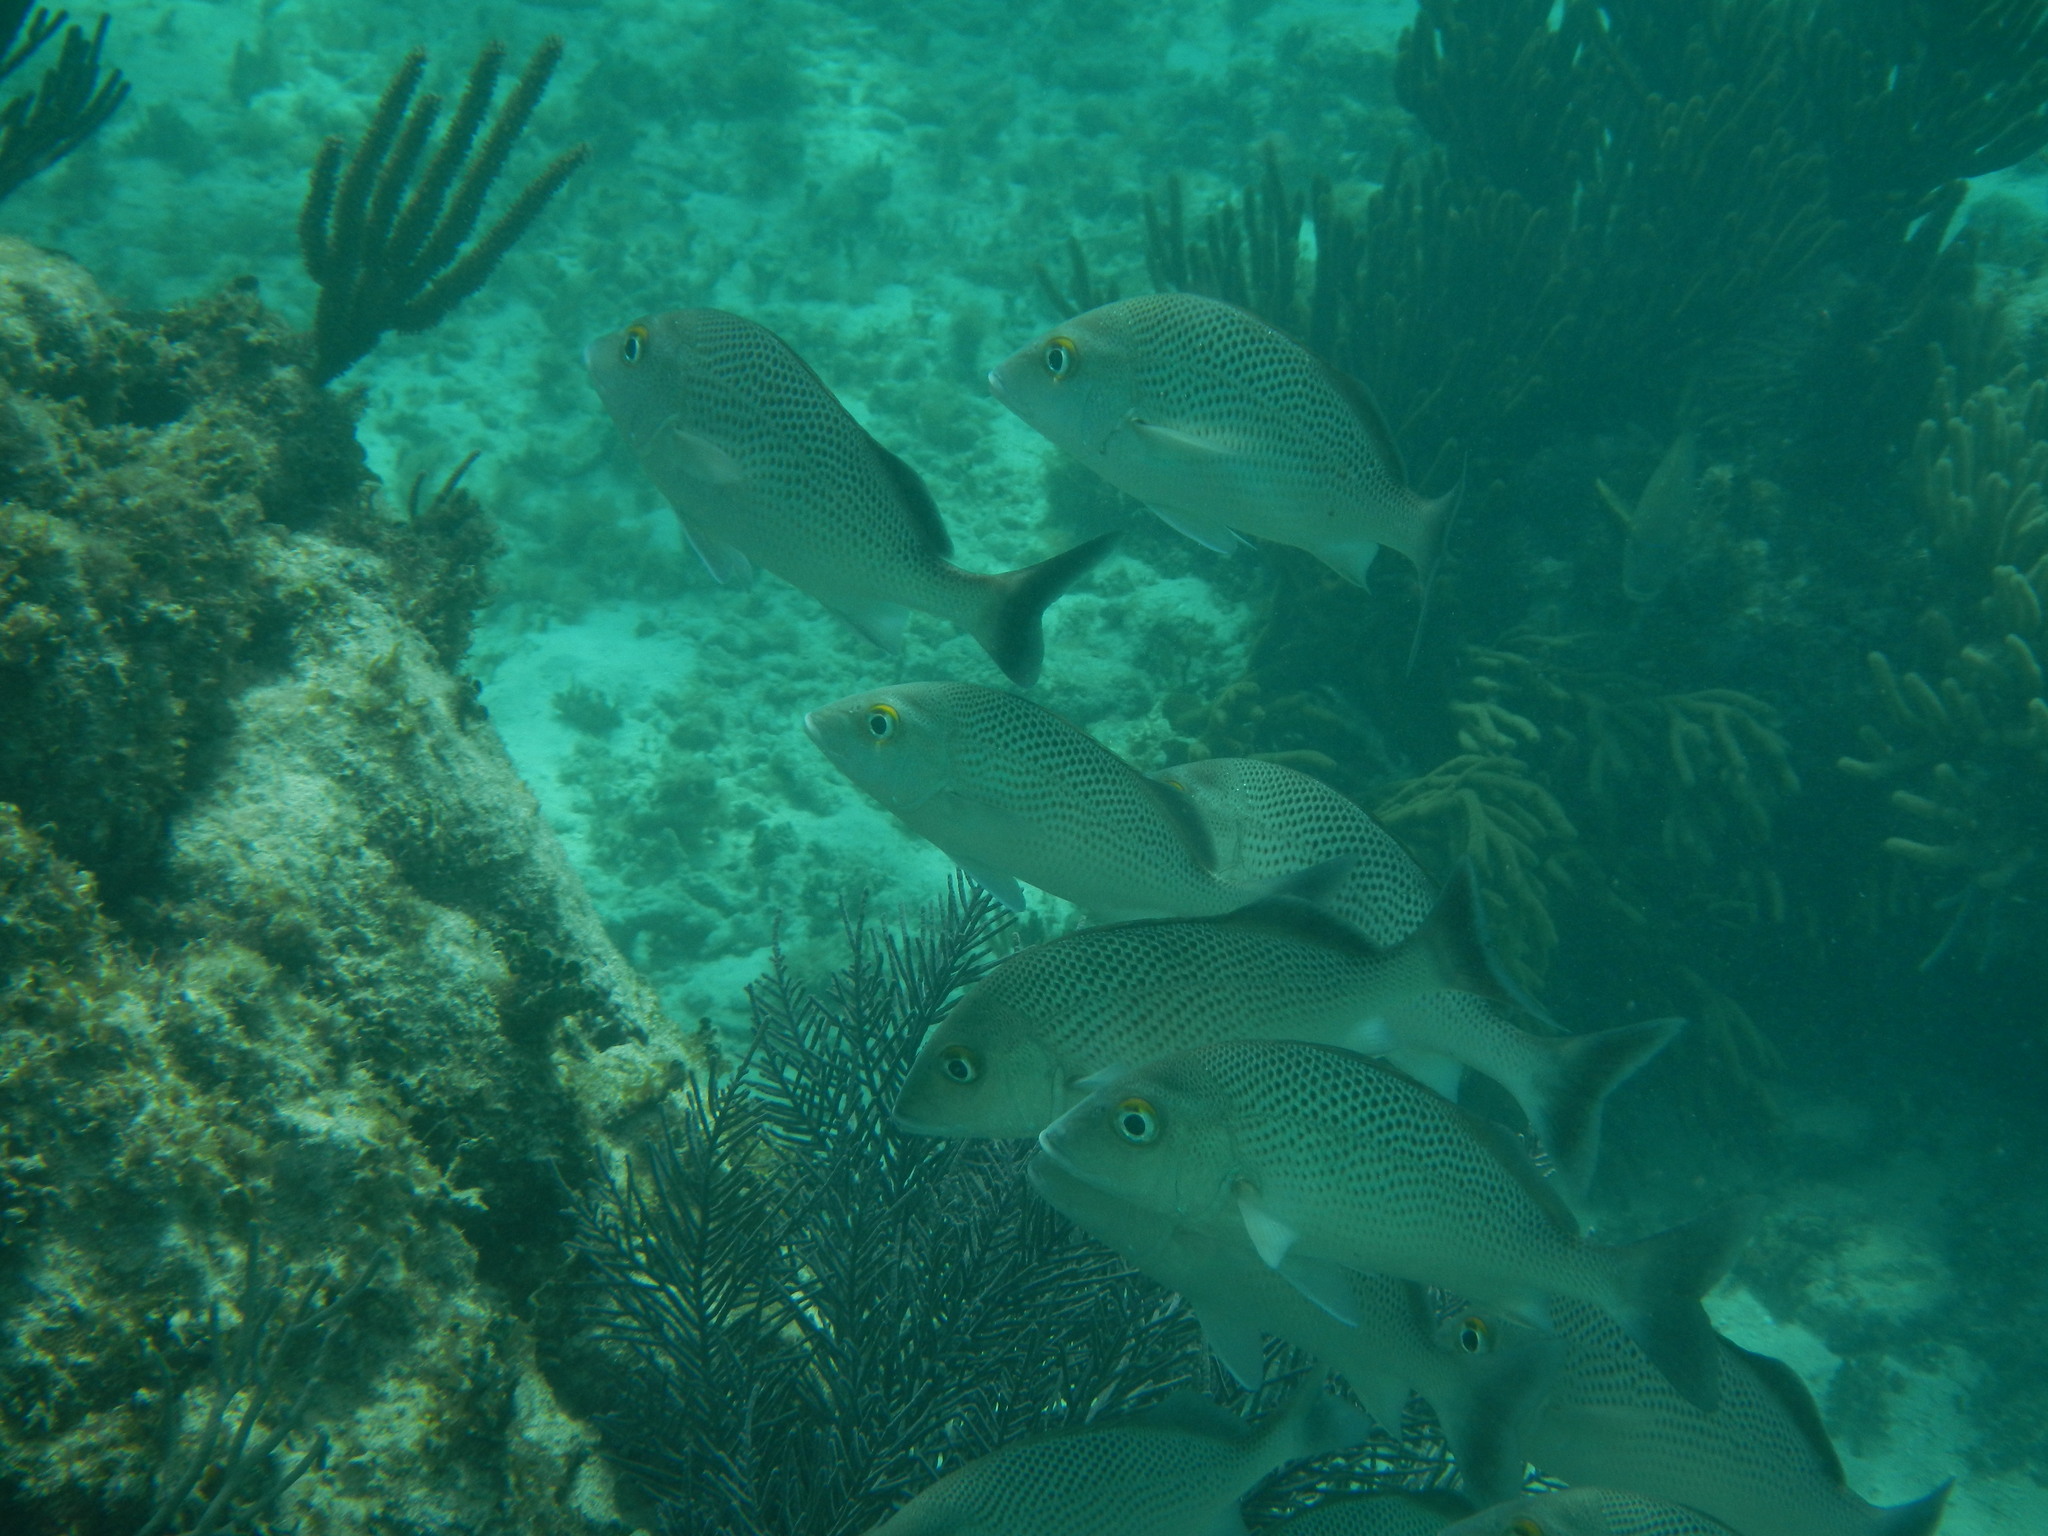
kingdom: Animalia
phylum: Chordata
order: Perciformes
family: Haemulidae
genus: Haemulon
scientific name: Haemulon parra
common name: Sailor's choice
